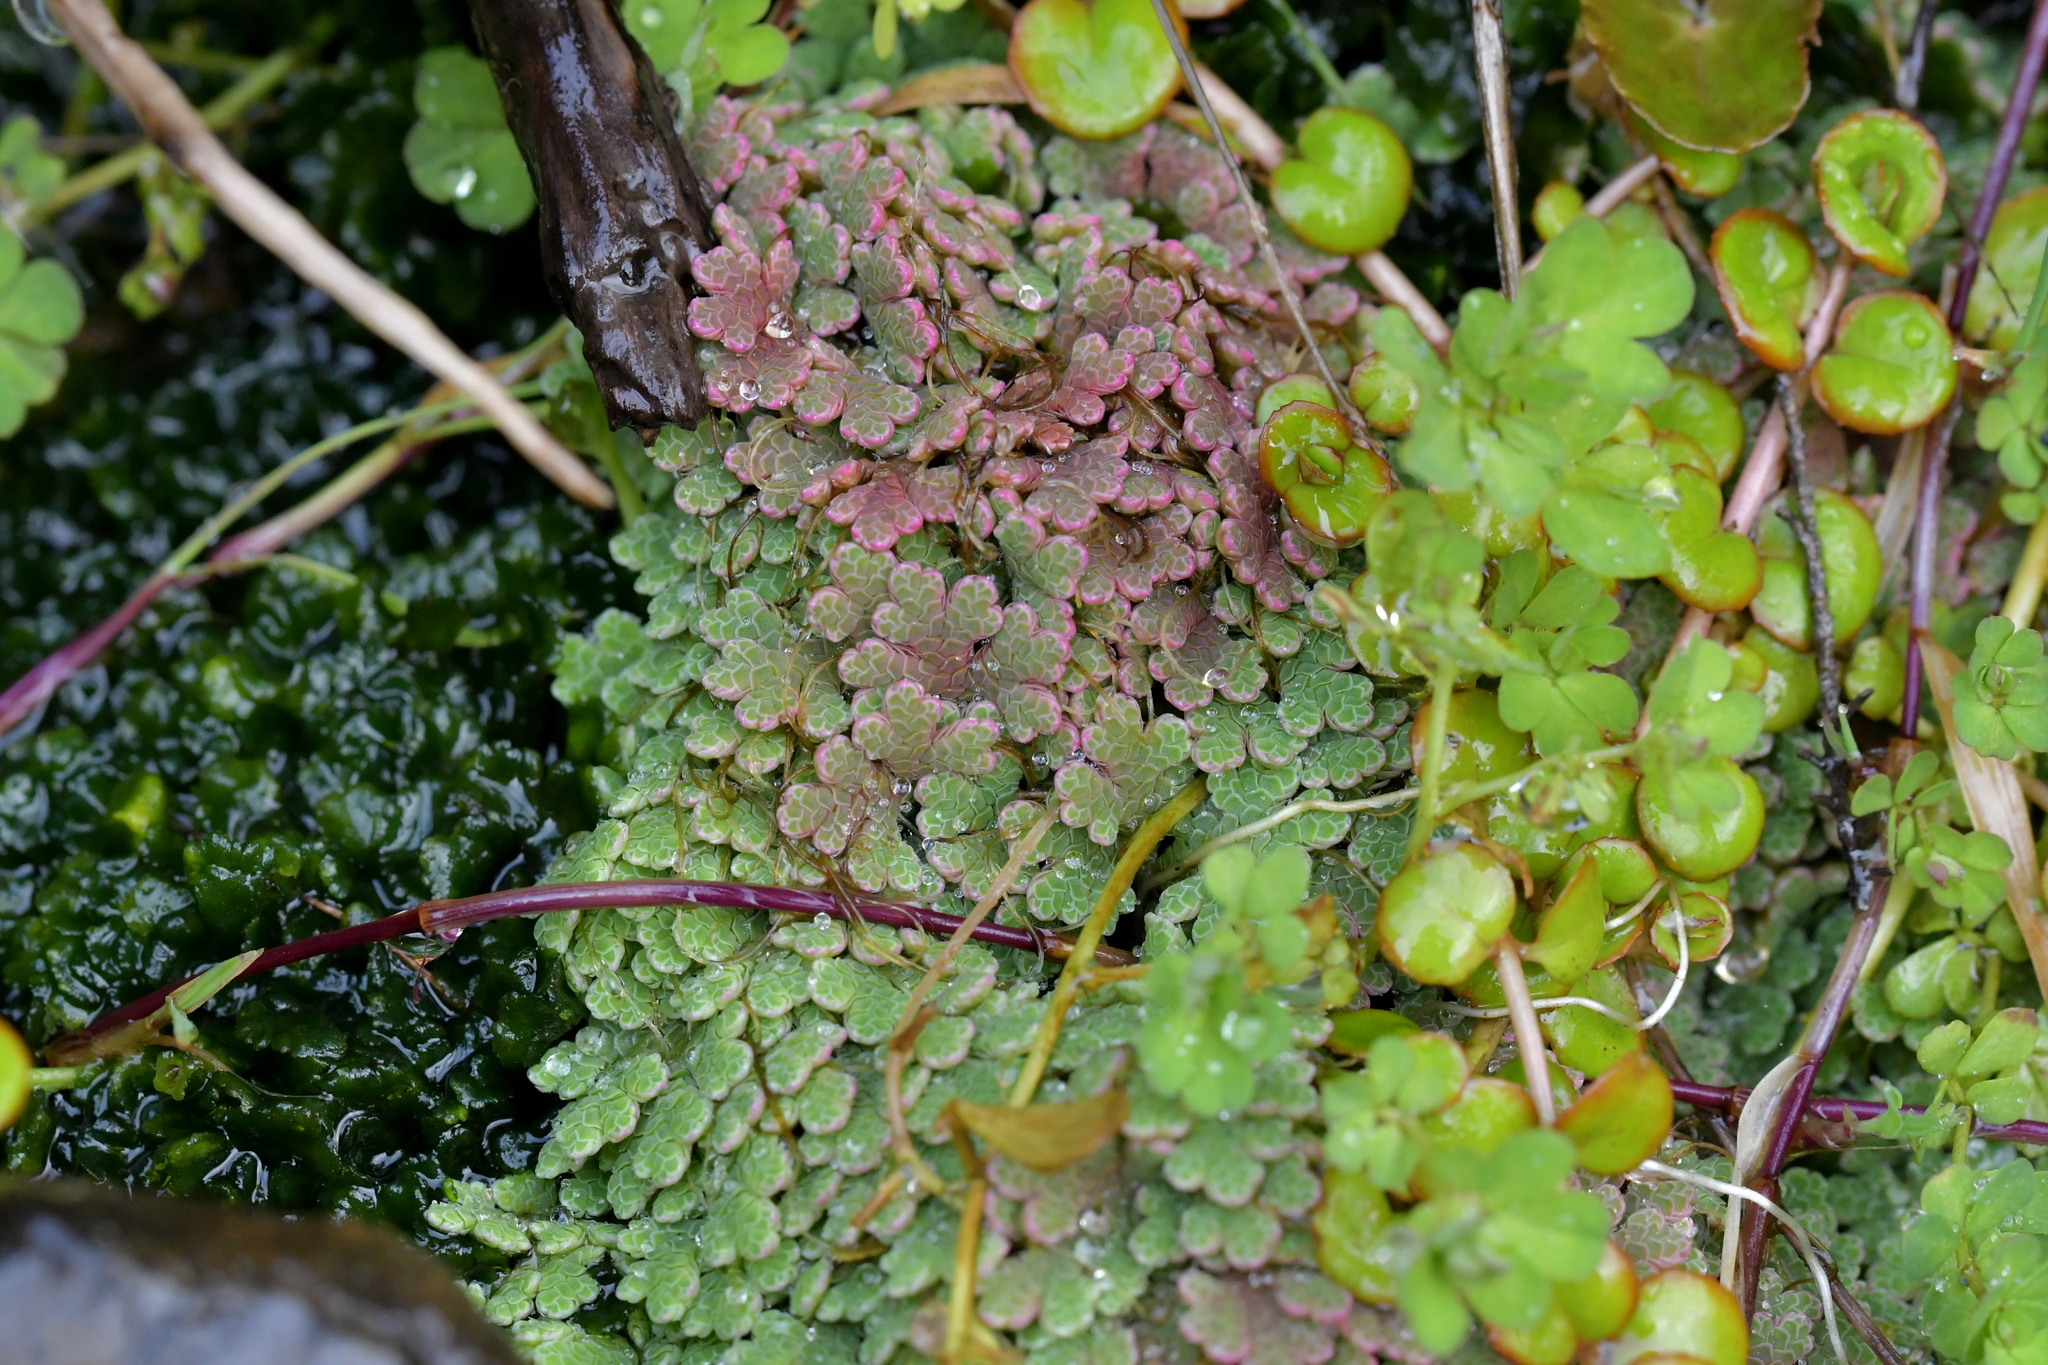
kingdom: Plantae
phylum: Tracheophyta
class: Polypodiopsida
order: Salviniales
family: Salviniaceae
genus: Azolla
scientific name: Azolla rubra
